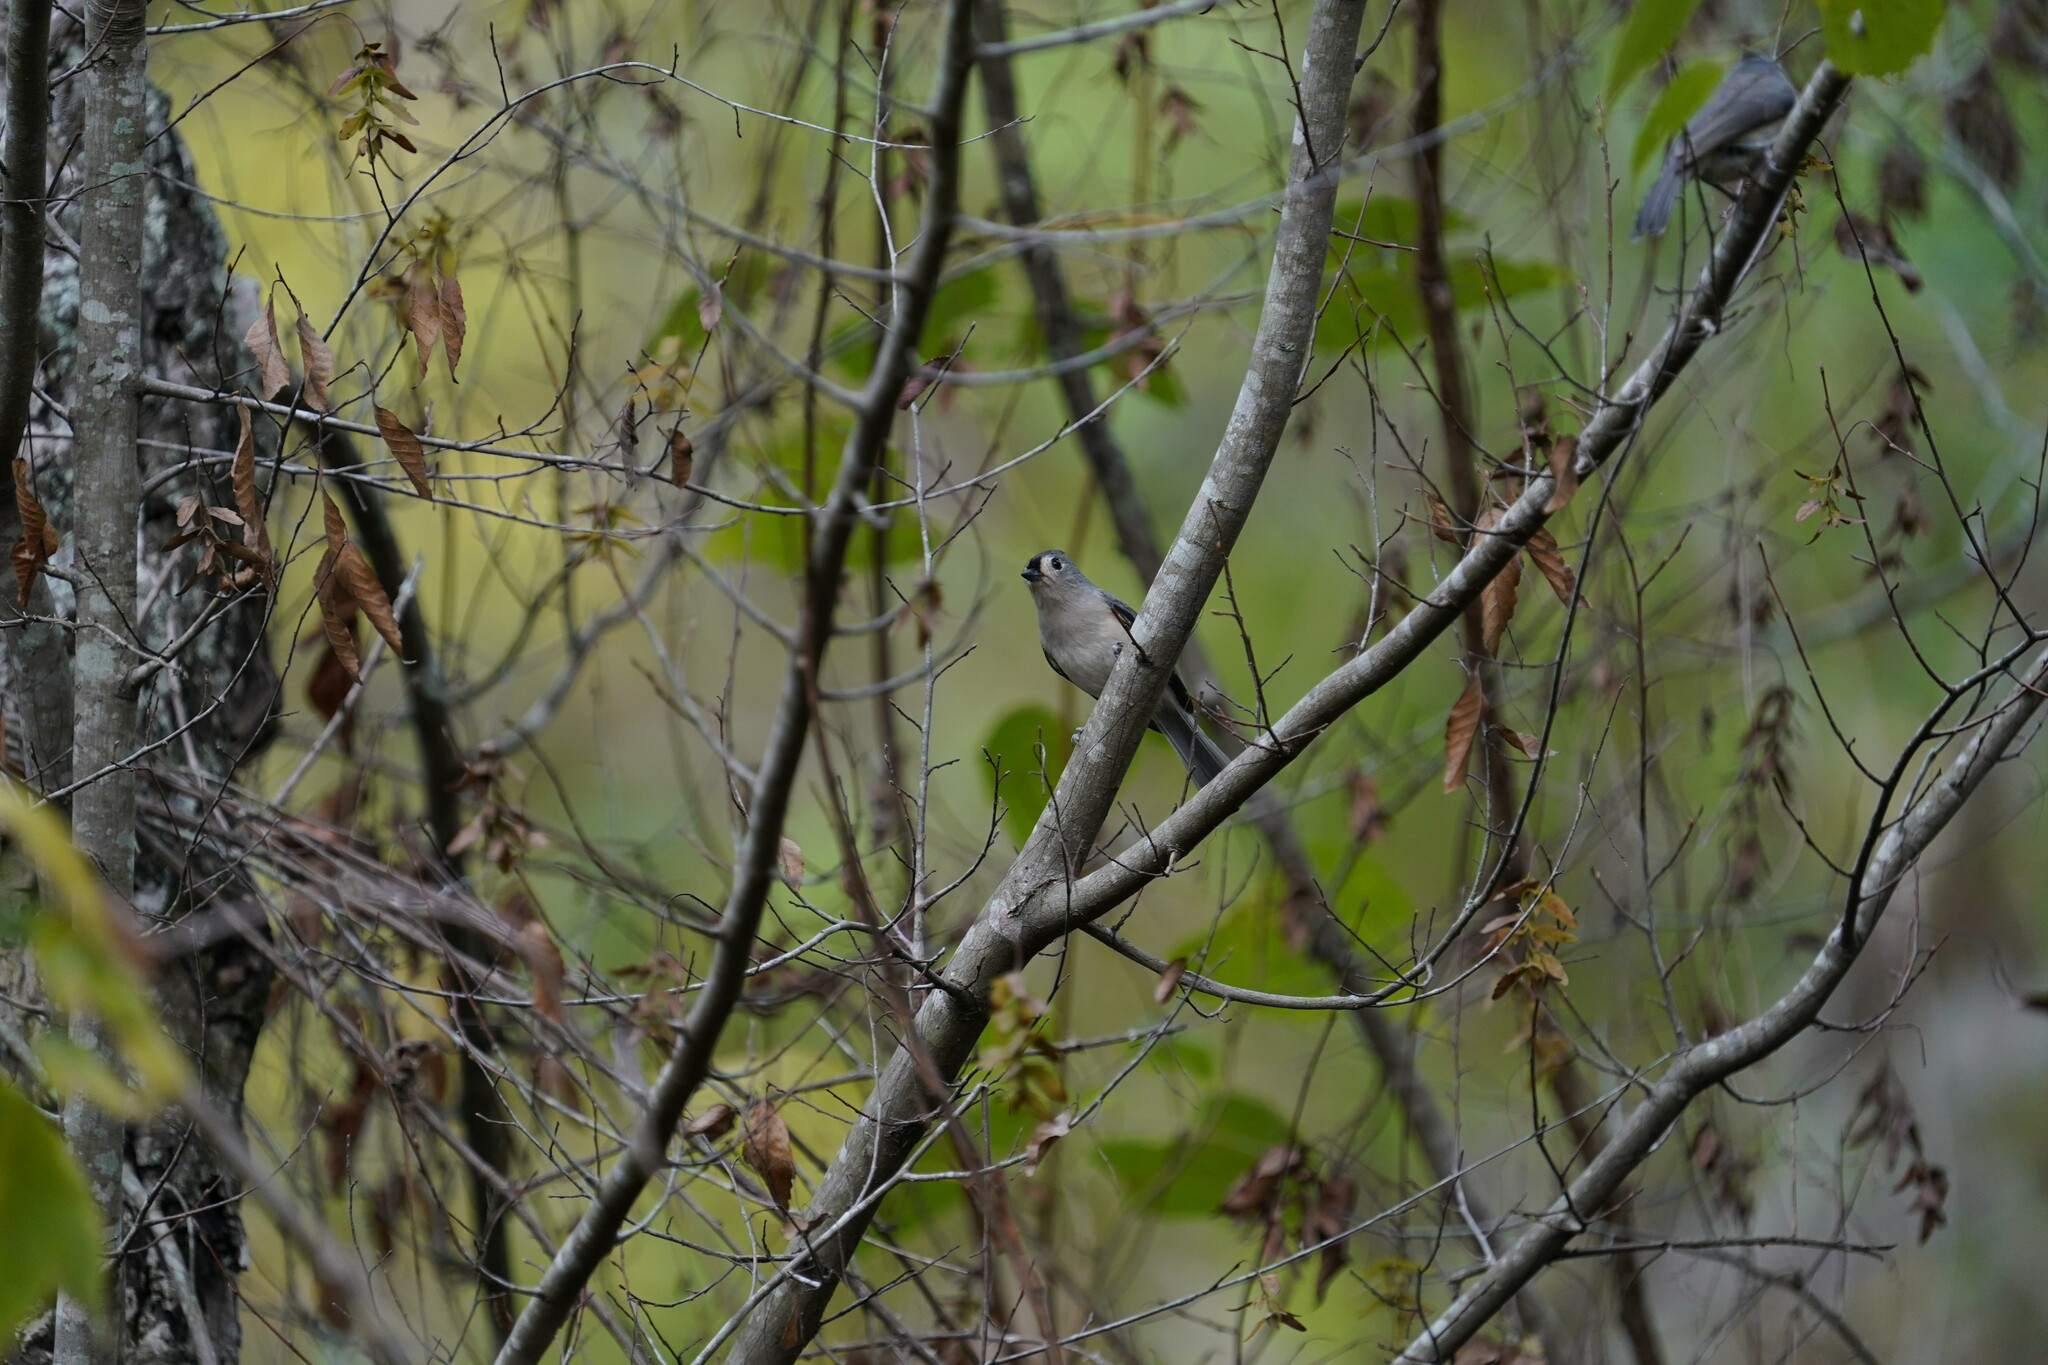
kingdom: Animalia
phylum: Chordata
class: Aves
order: Passeriformes
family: Paridae
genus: Baeolophus
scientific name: Baeolophus bicolor
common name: Tufted titmouse
